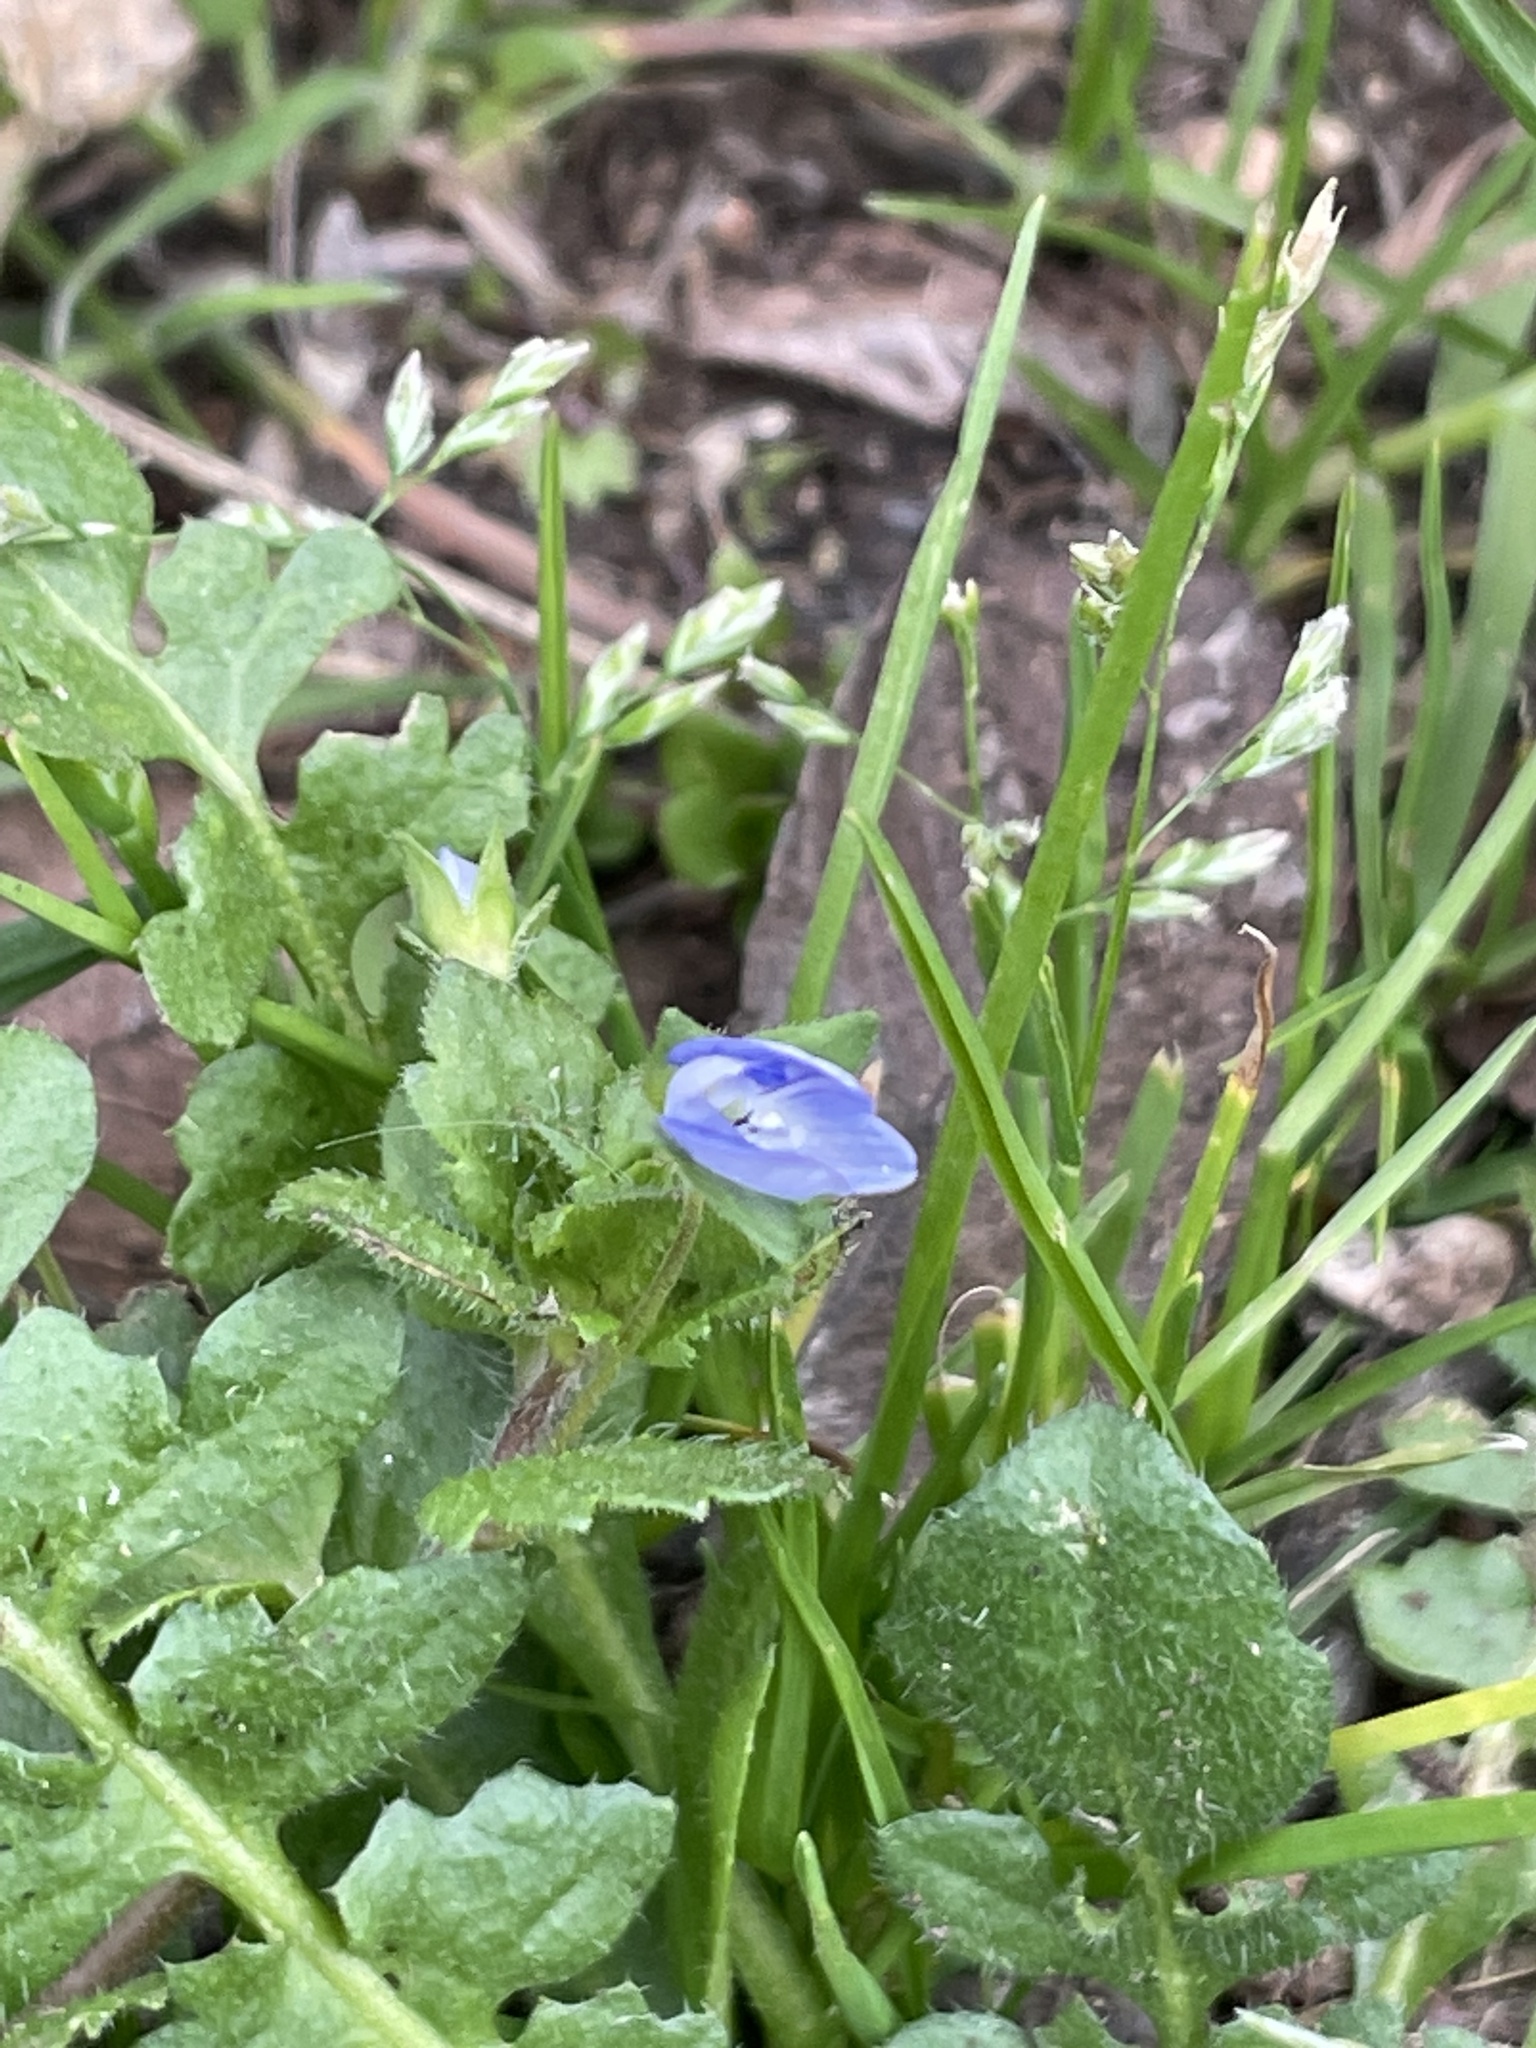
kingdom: Plantae
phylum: Tracheophyta
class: Magnoliopsida
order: Lamiales
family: Plantaginaceae
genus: Veronica
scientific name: Veronica persica
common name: Common field-speedwell
